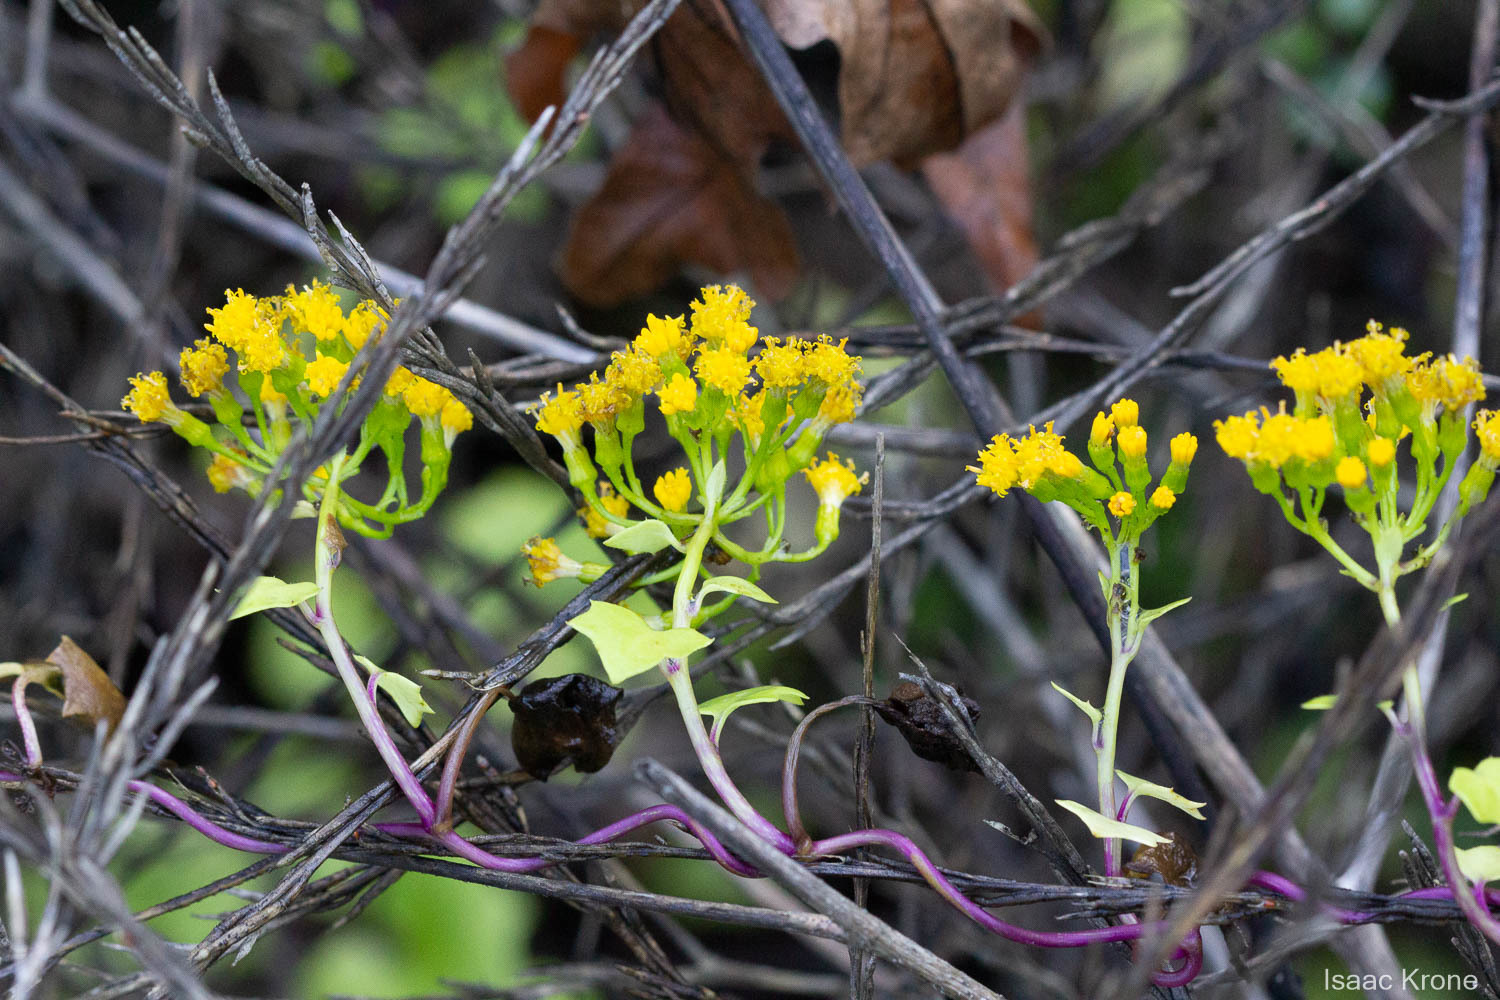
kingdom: Plantae
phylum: Tracheophyta
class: Magnoliopsida
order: Asterales
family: Asteraceae
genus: Delairea
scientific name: Delairea odorata
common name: Cape-ivy
